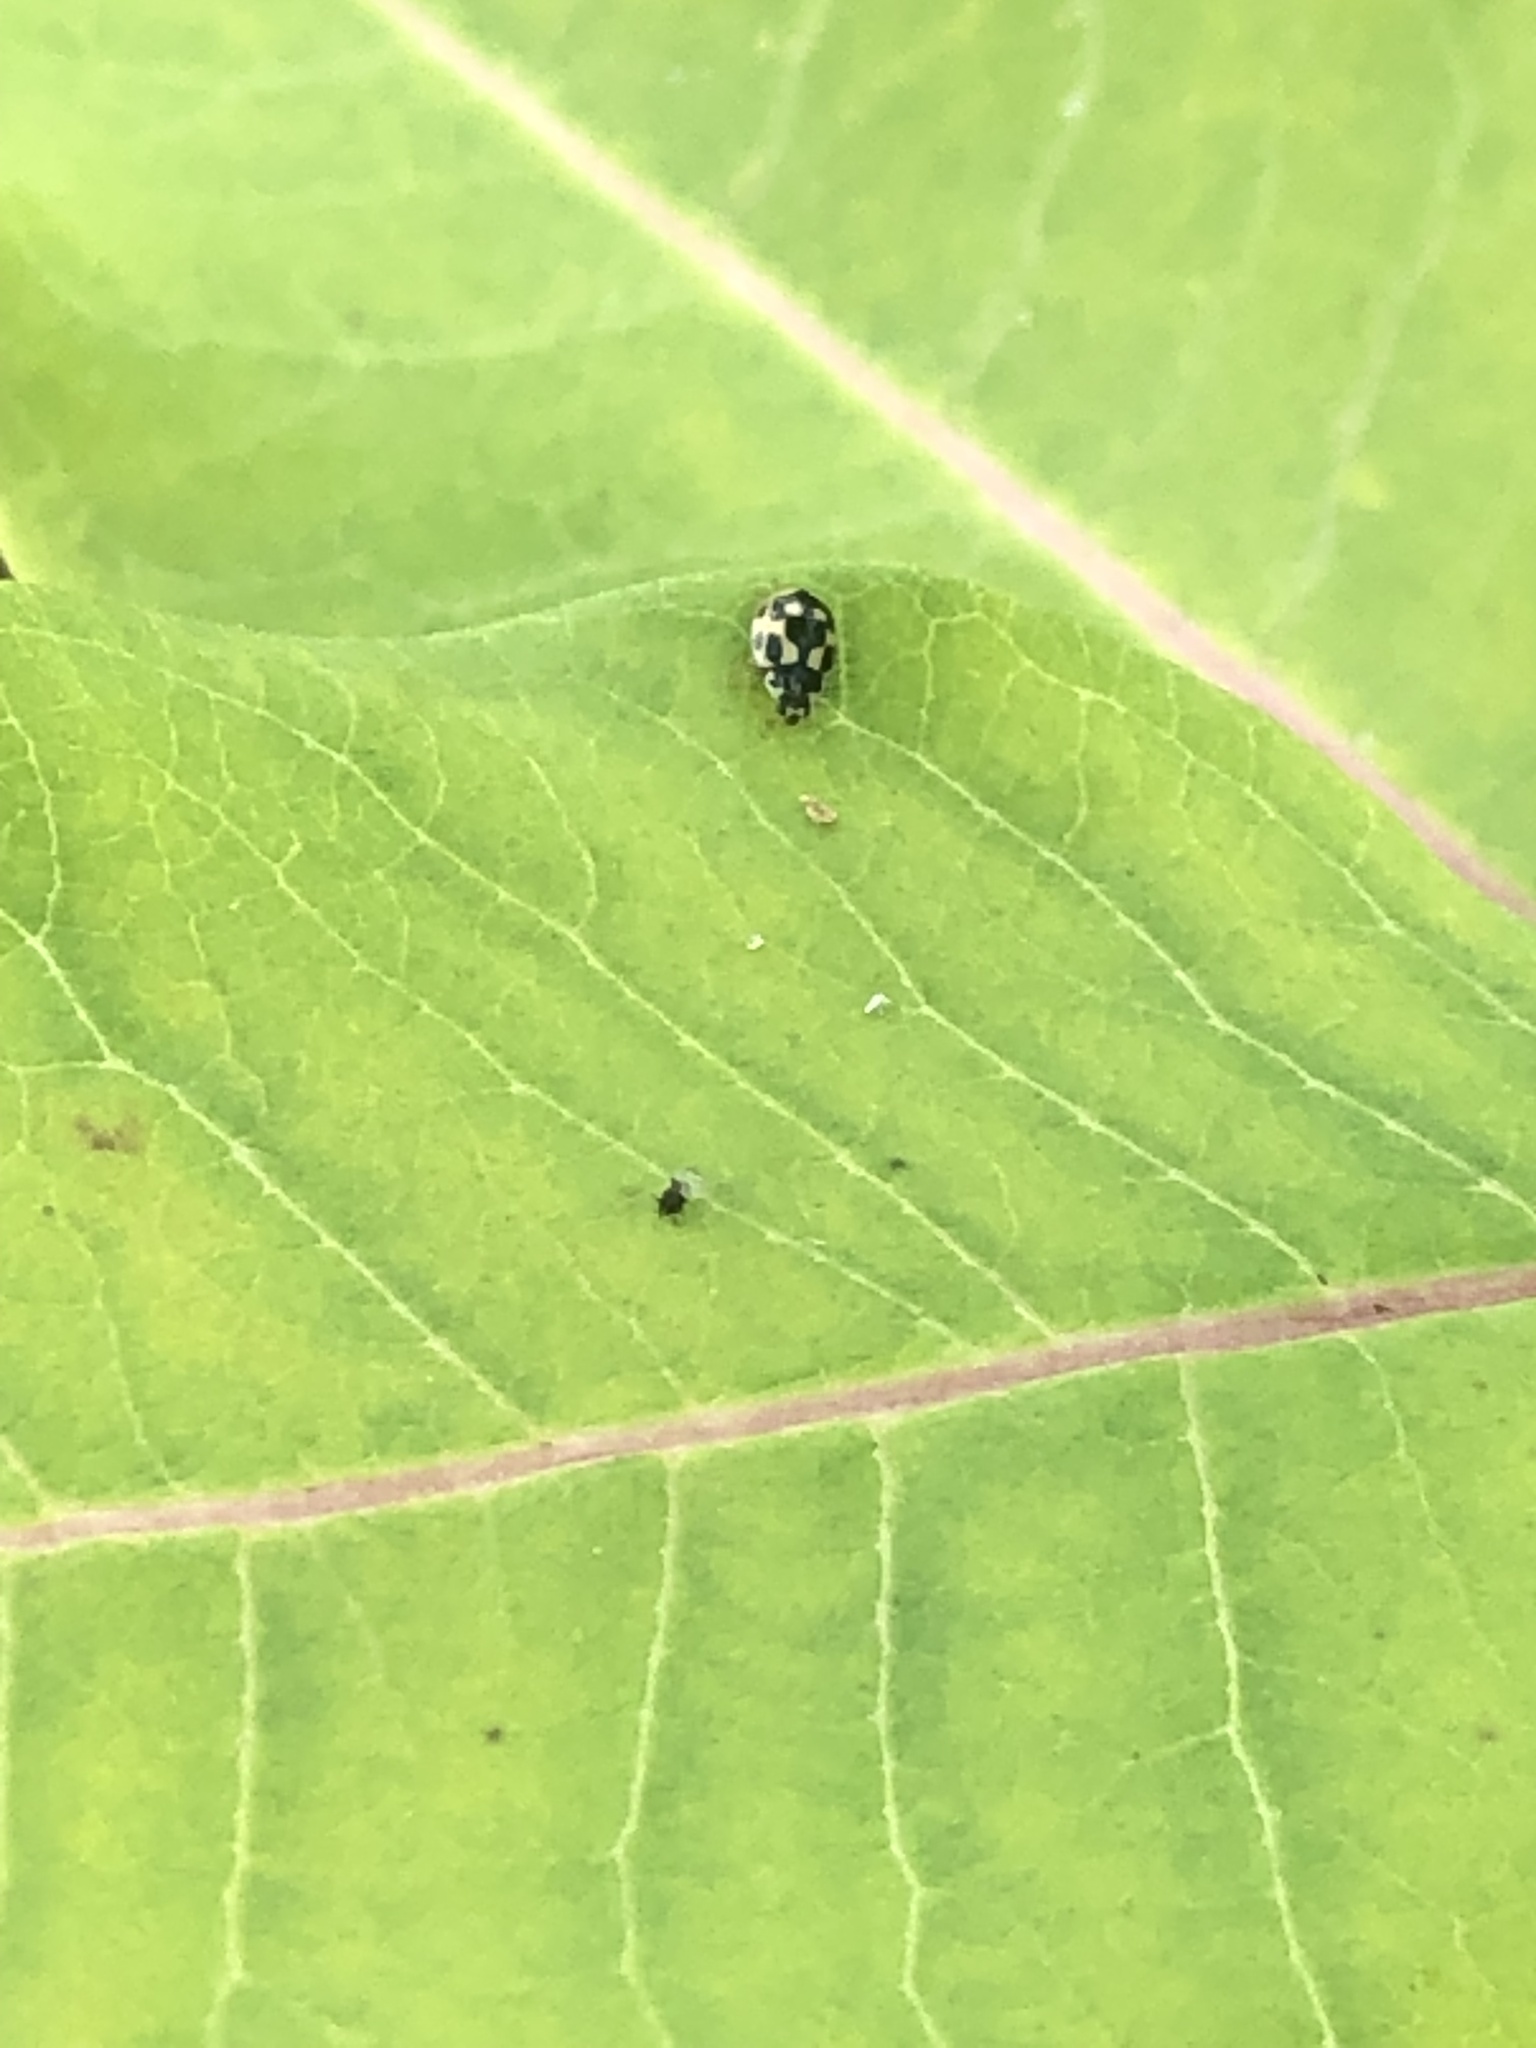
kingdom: Animalia
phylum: Arthropoda
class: Insecta
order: Coleoptera
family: Coccinellidae
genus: Propylaea
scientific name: Propylaea quatuordecimpunctata
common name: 14-spotted ladybird beetle
